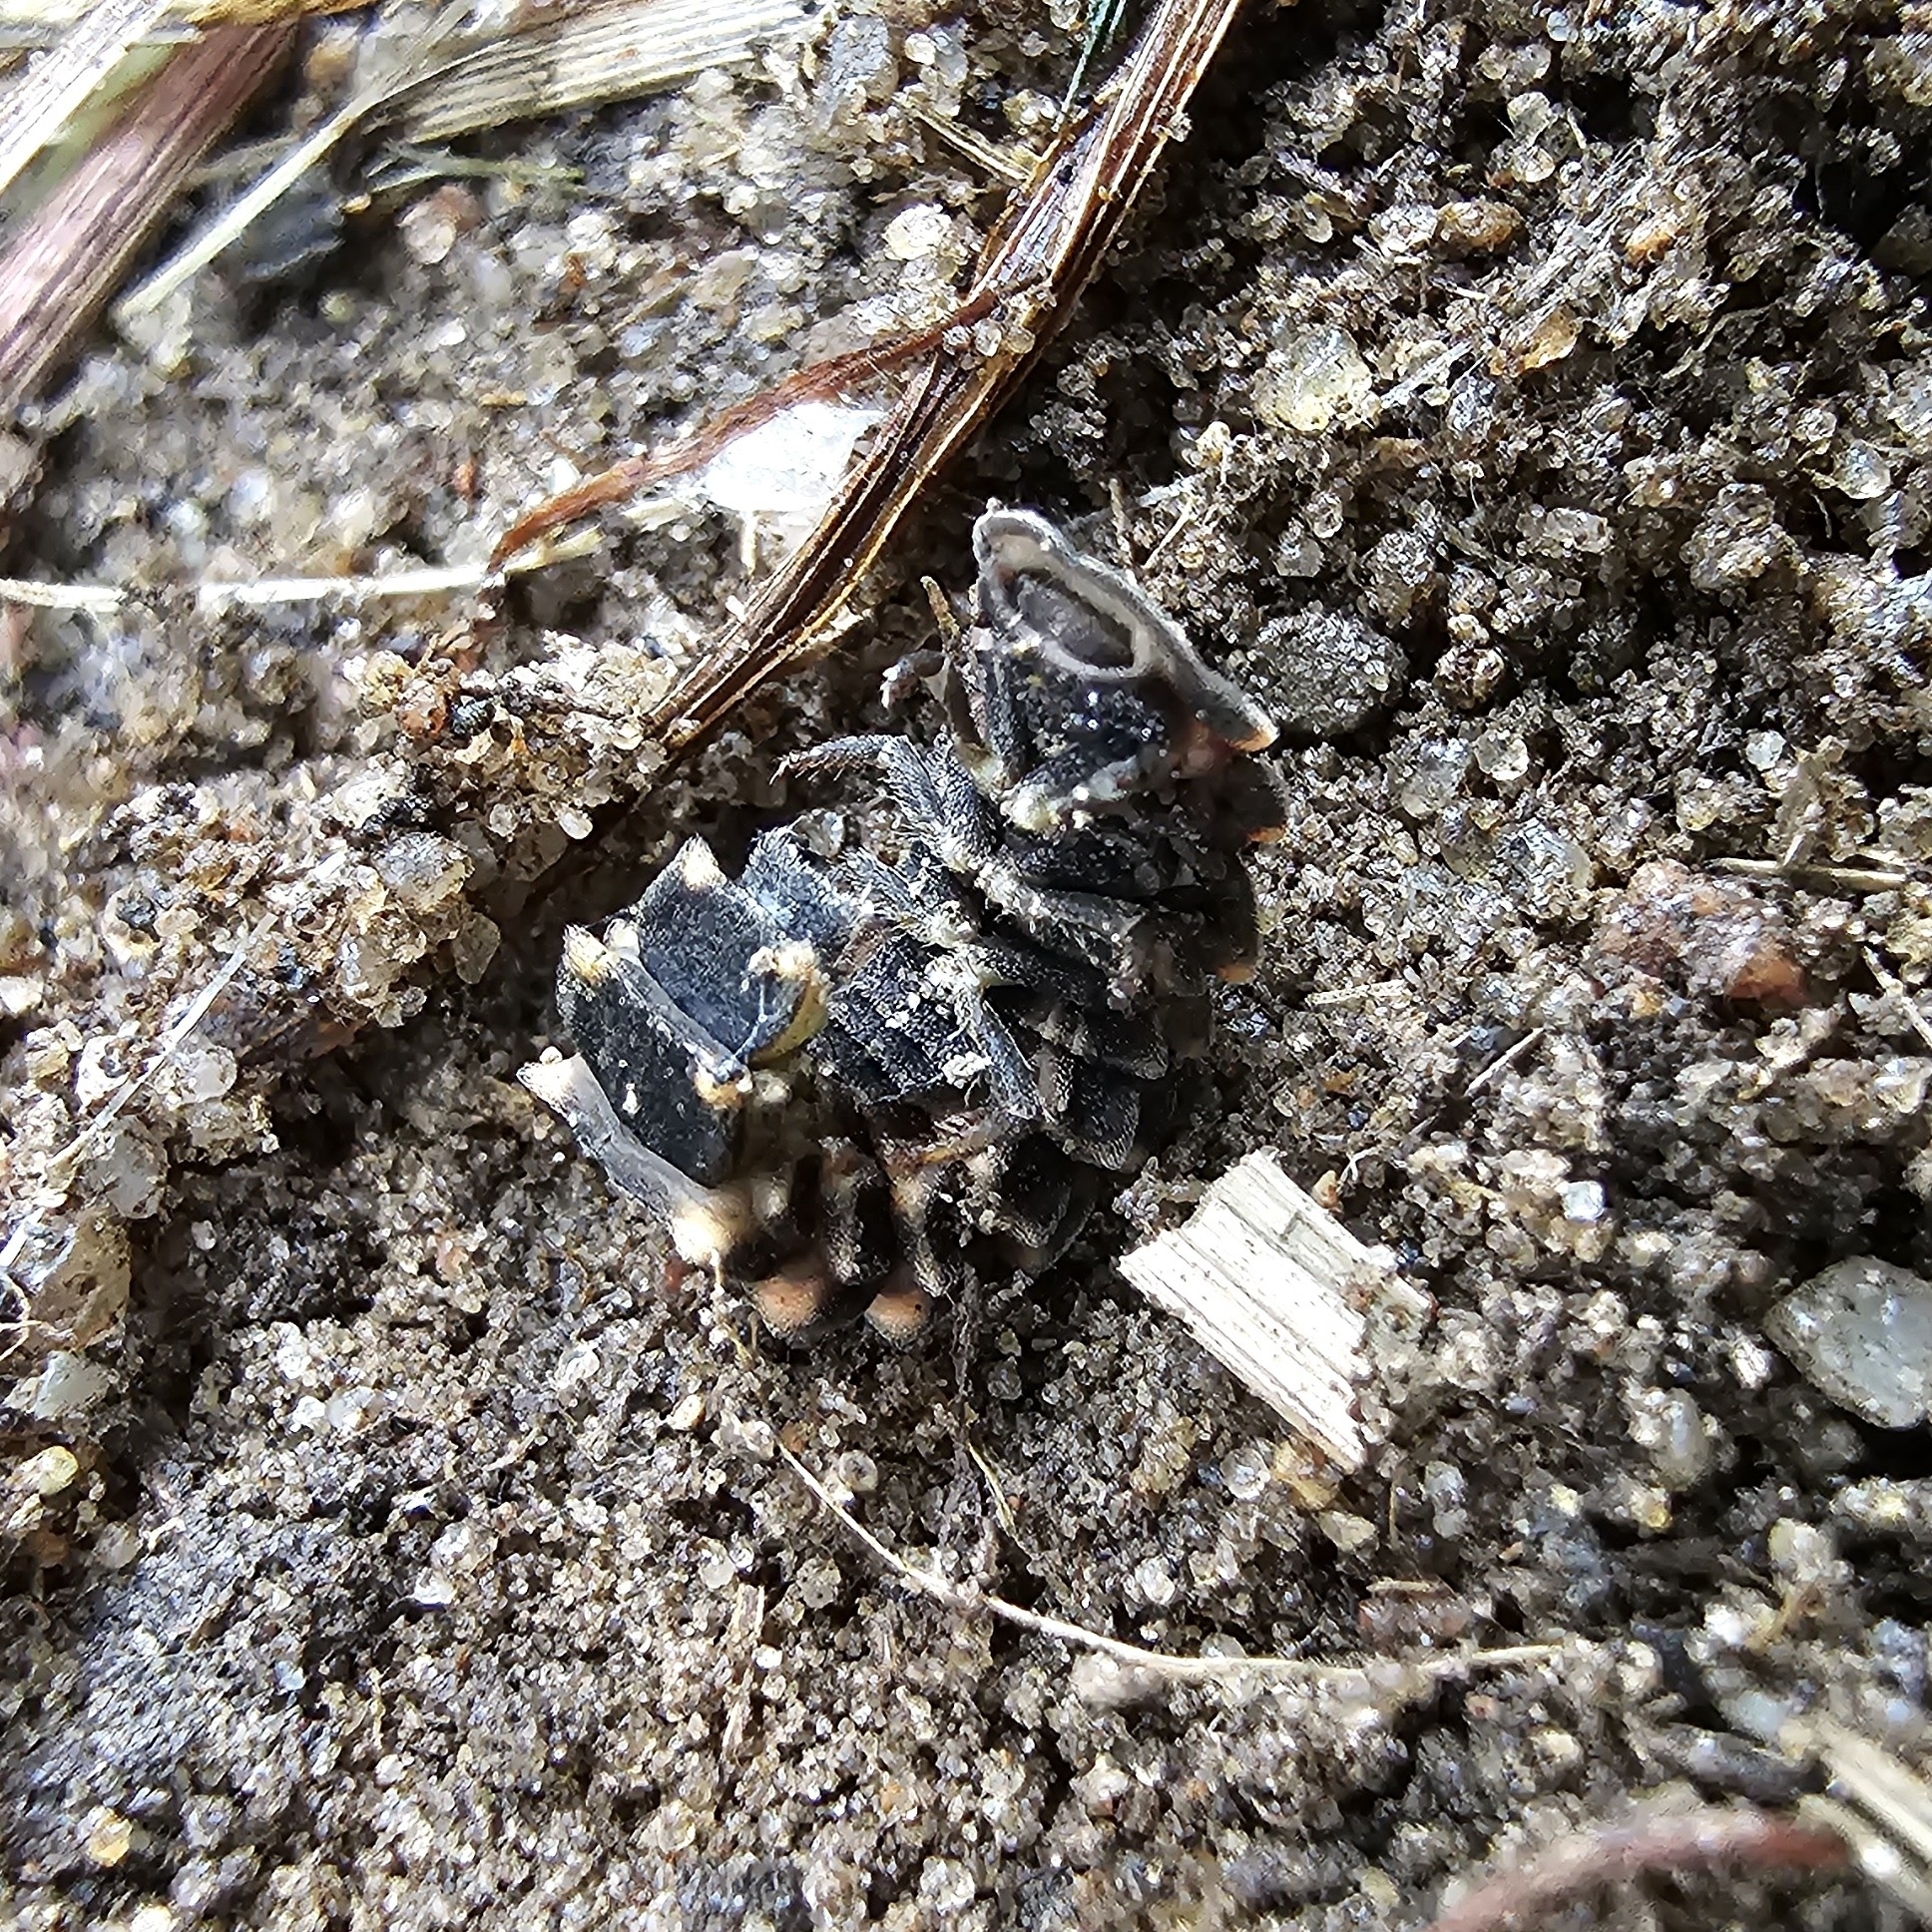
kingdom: Animalia
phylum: Arthropoda
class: Insecta
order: Coleoptera
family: Lampyridae
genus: Lampyris
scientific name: Lampyris noctiluca
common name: Glow-worm
